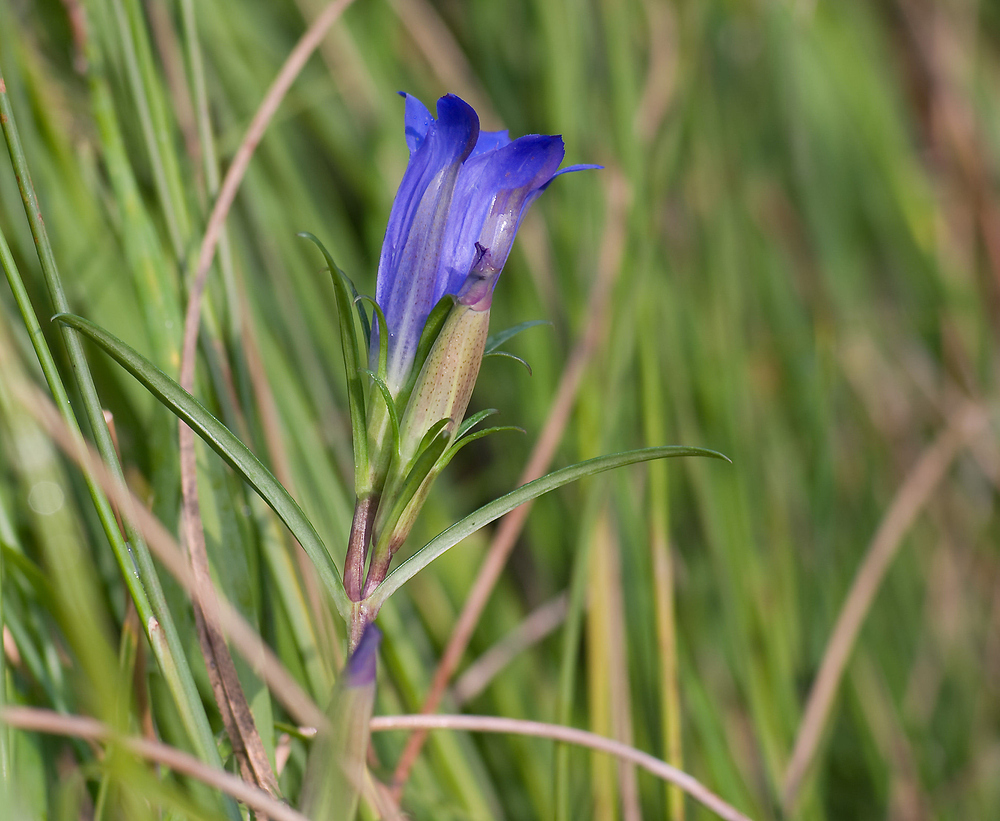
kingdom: Plantae
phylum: Tracheophyta
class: Magnoliopsida
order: Gentianales
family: Gentianaceae
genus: Gentiana
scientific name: Gentiana pneumonanthe
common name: Marsh gentian
